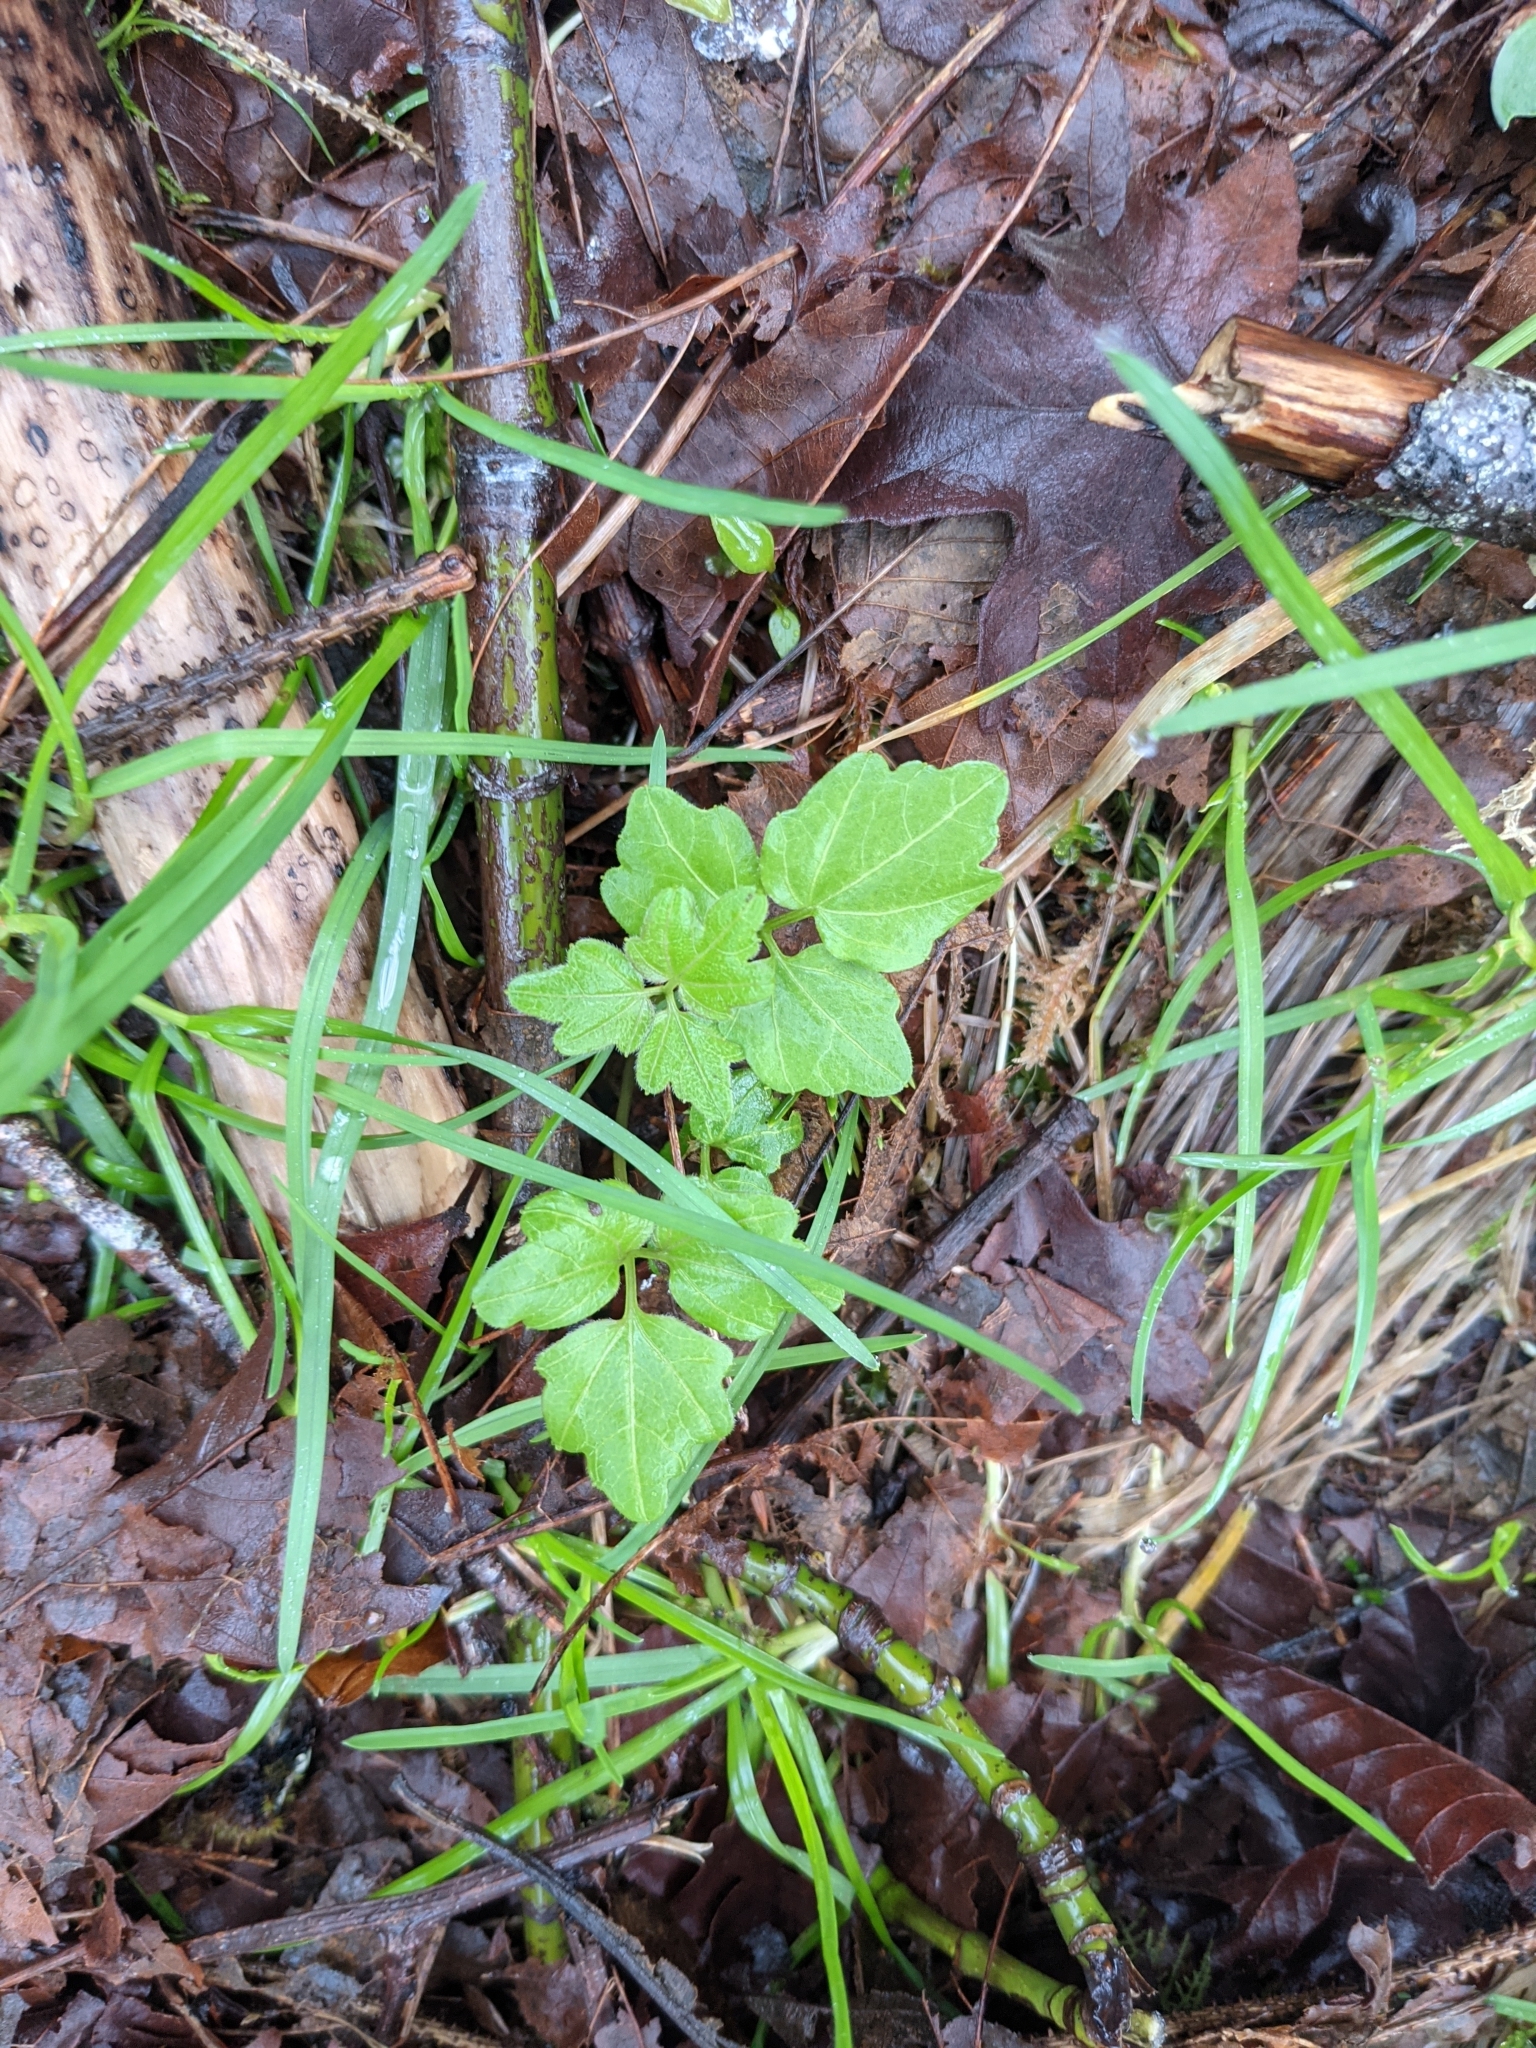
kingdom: Plantae
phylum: Tracheophyta
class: Magnoliopsida
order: Brassicales
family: Brassicaceae
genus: Cardamine
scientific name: Cardamine angulata
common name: Angled bittercress
